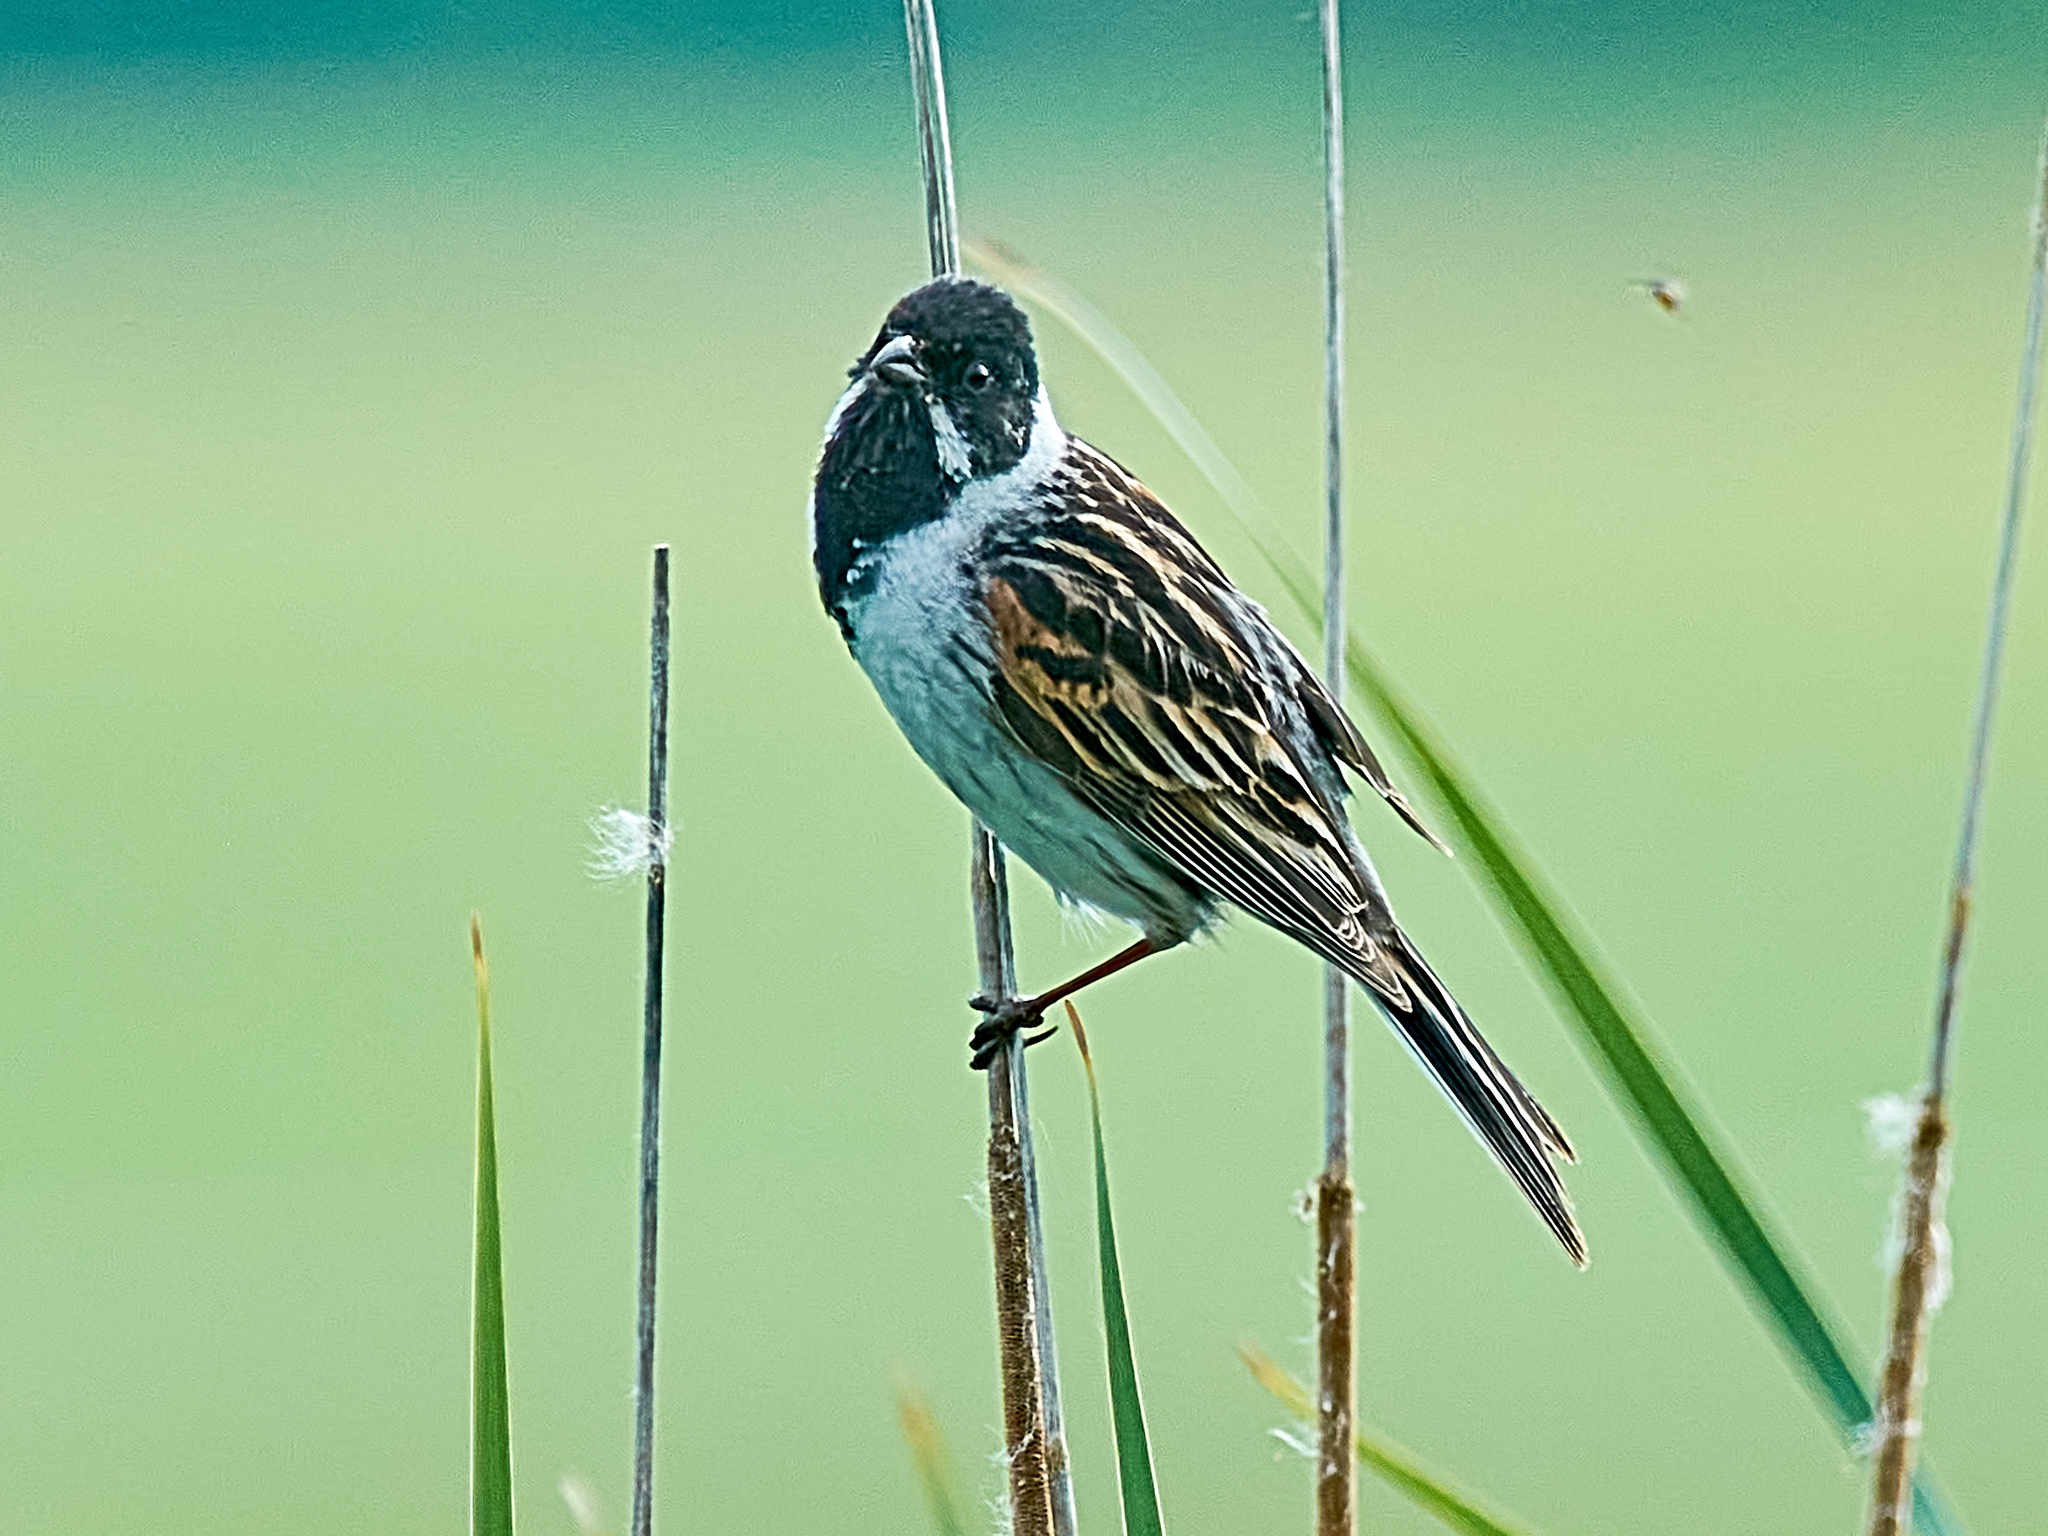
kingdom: Animalia
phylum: Chordata
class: Aves
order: Passeriformes
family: Emberizidae
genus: Emberiza
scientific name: Emberiza schoeniclus
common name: Reed bunting
